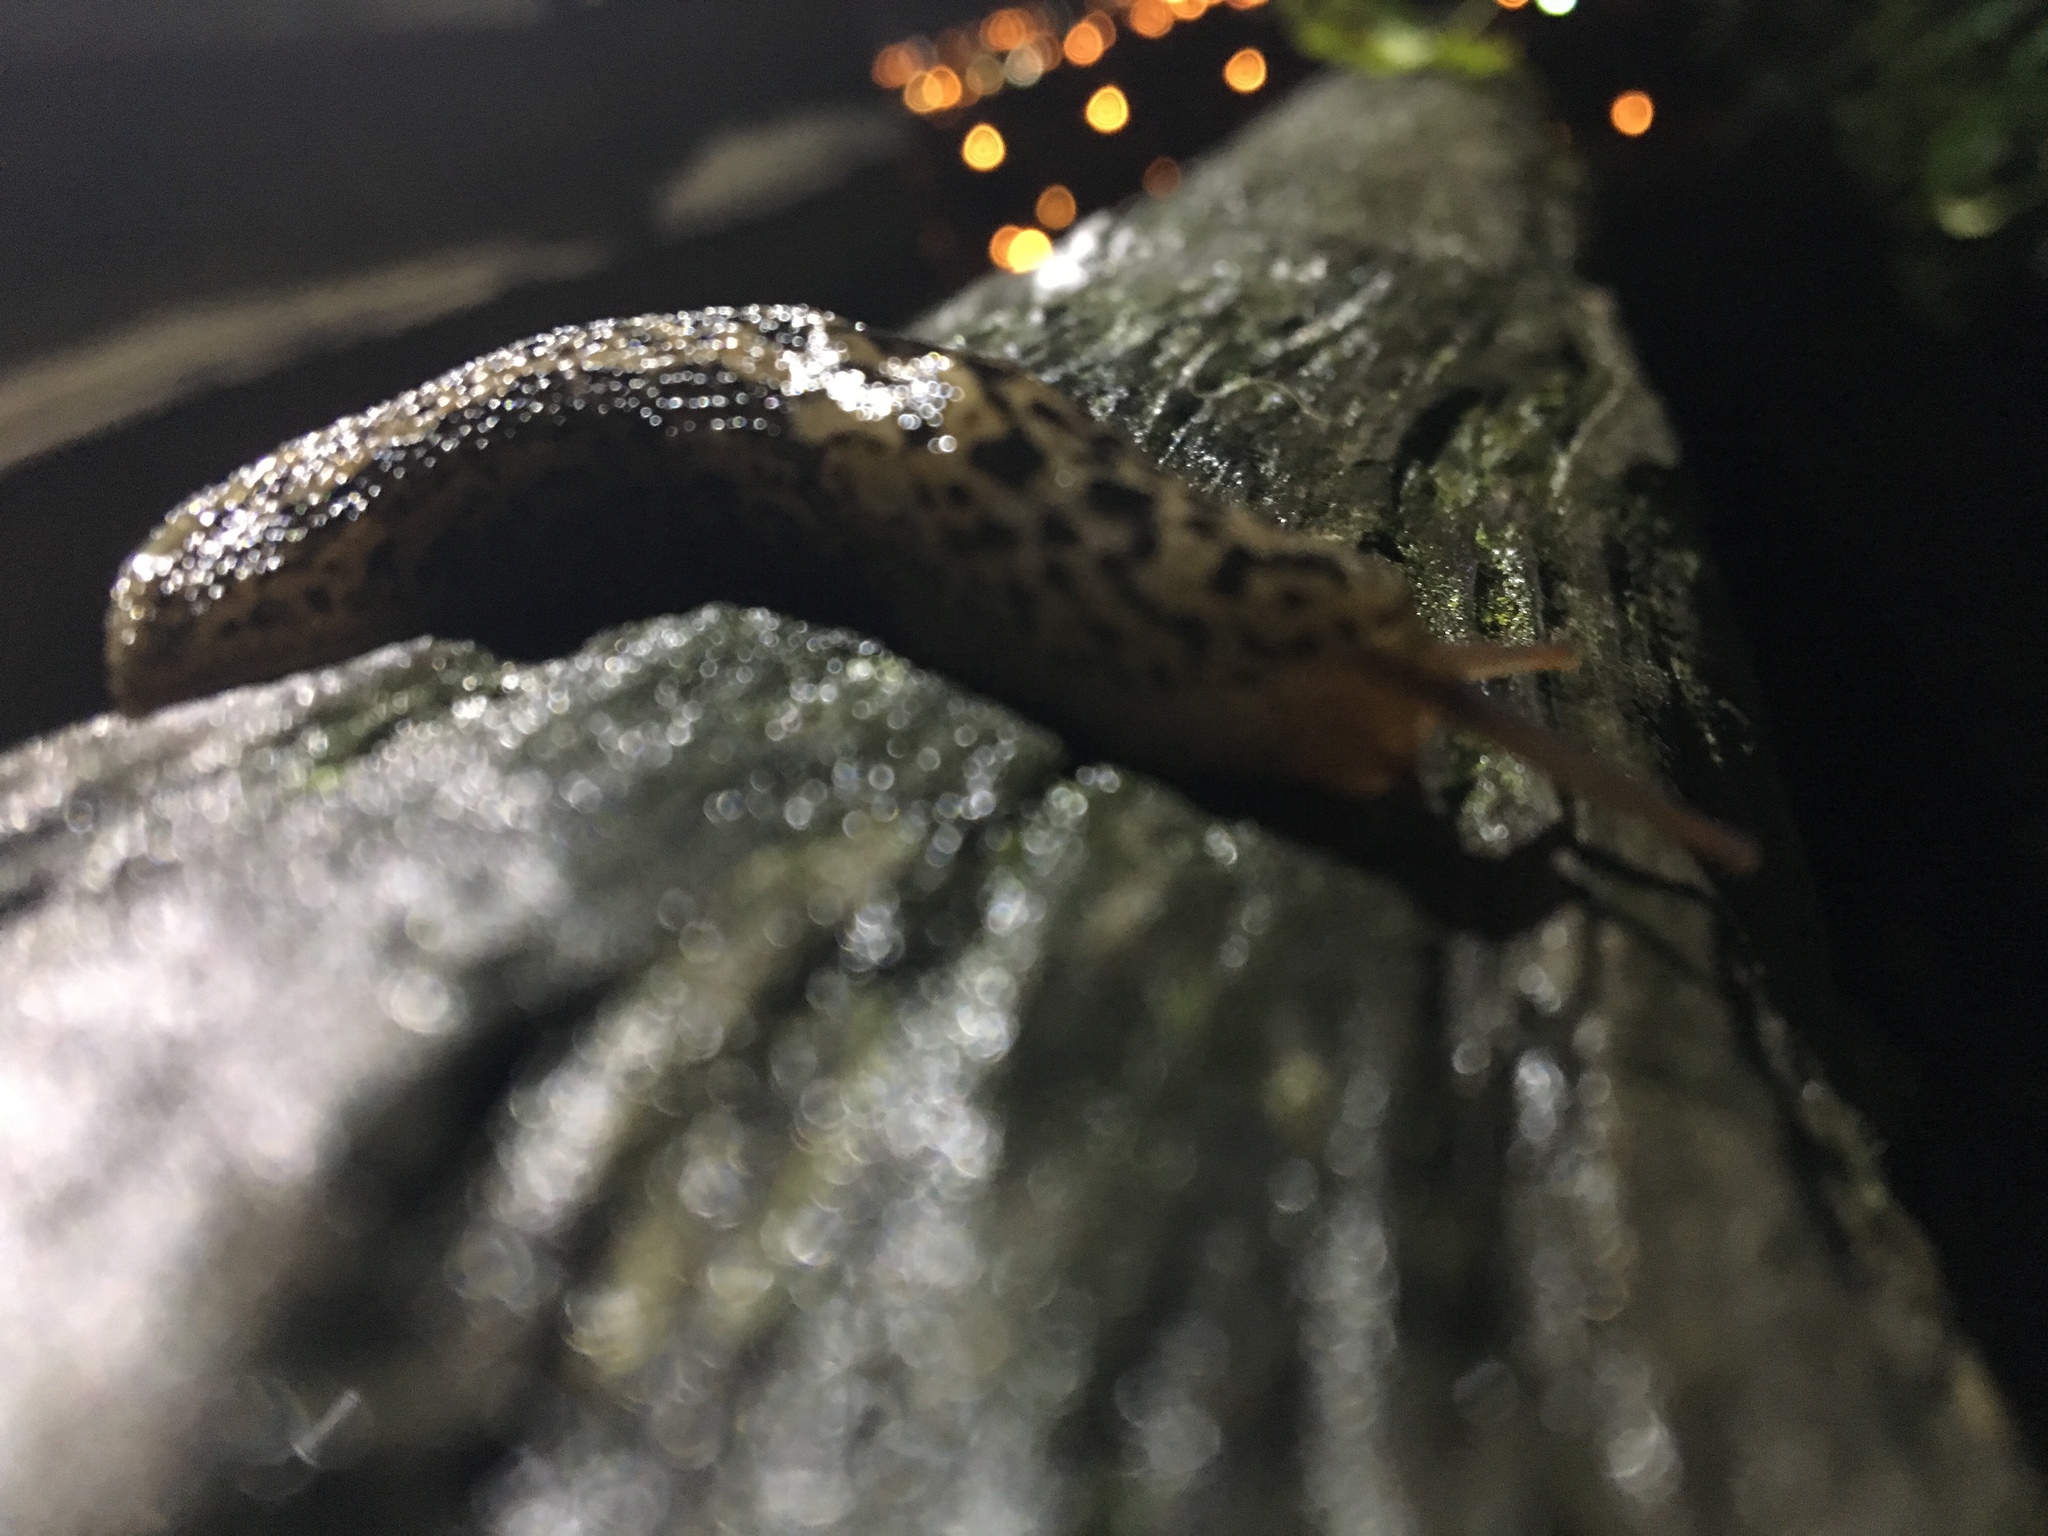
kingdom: Animalia
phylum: Mollusca
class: Gastropoda
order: Stylommatophora
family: Limacidae
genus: Limax
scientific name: Limax maximus
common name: Great grey slug
